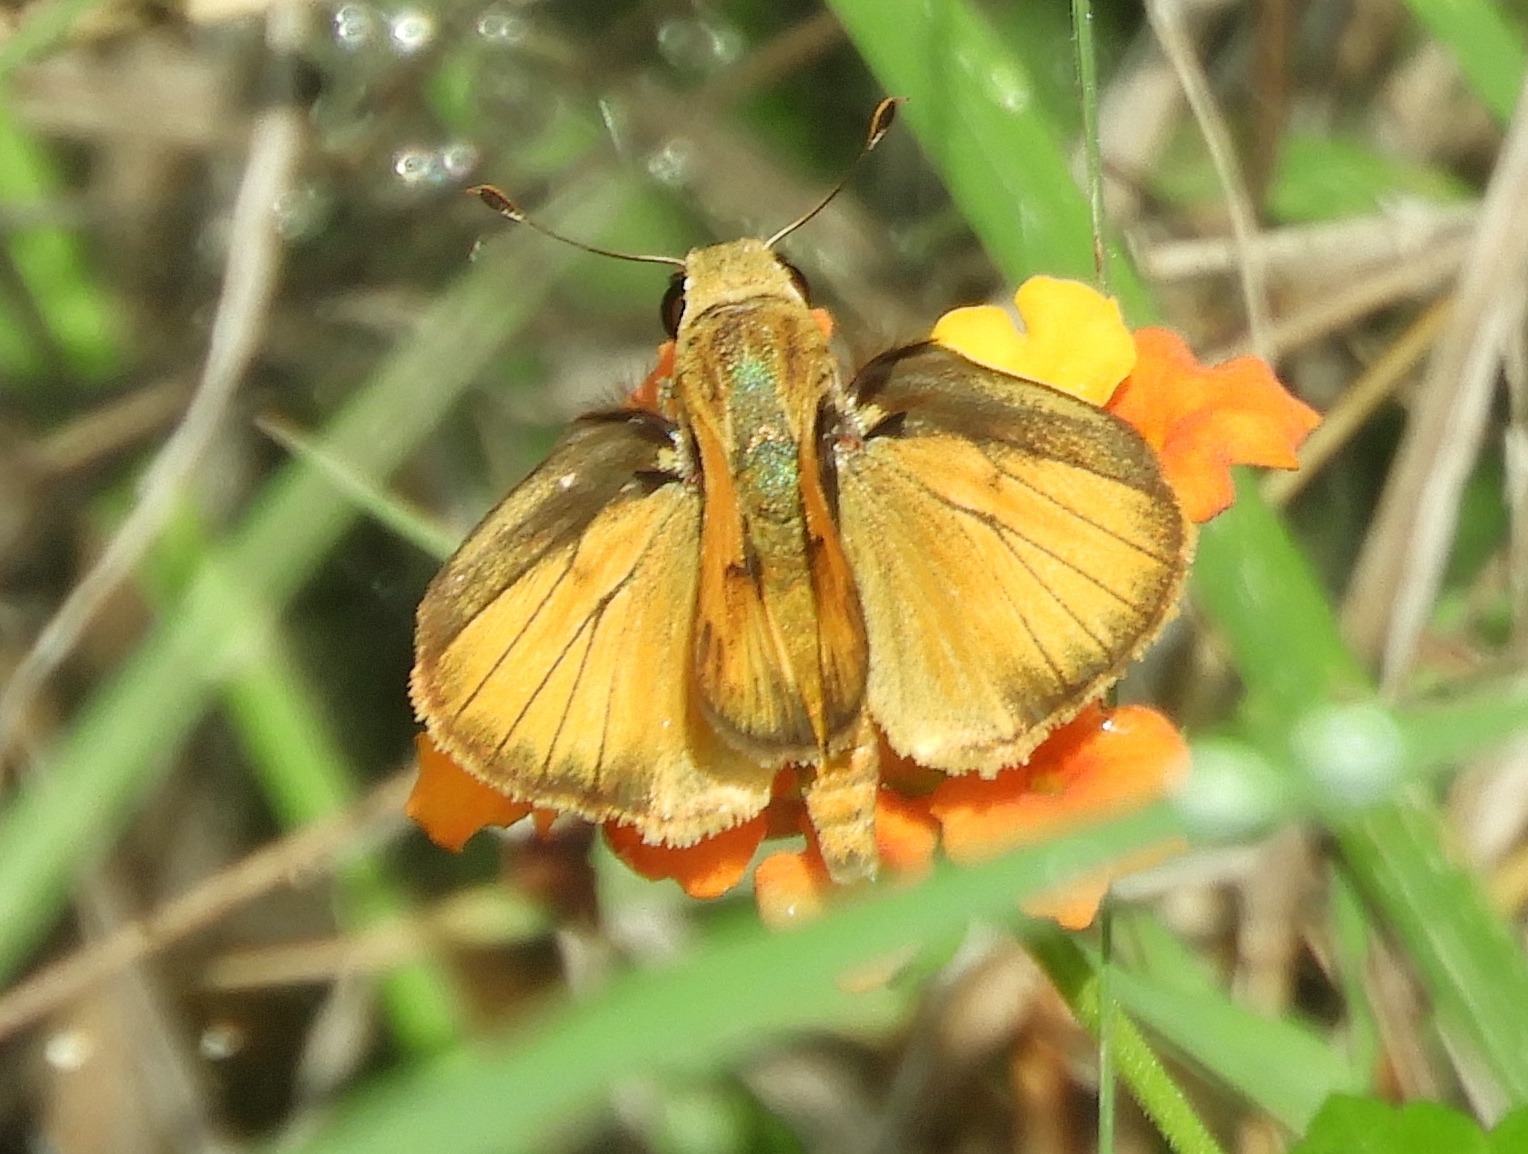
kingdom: Animalia
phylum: Arthropoda
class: Insecta
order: Lepidoptera
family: Hesperiidae
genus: Polites
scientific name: Polites vibex
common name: Whirlabout
